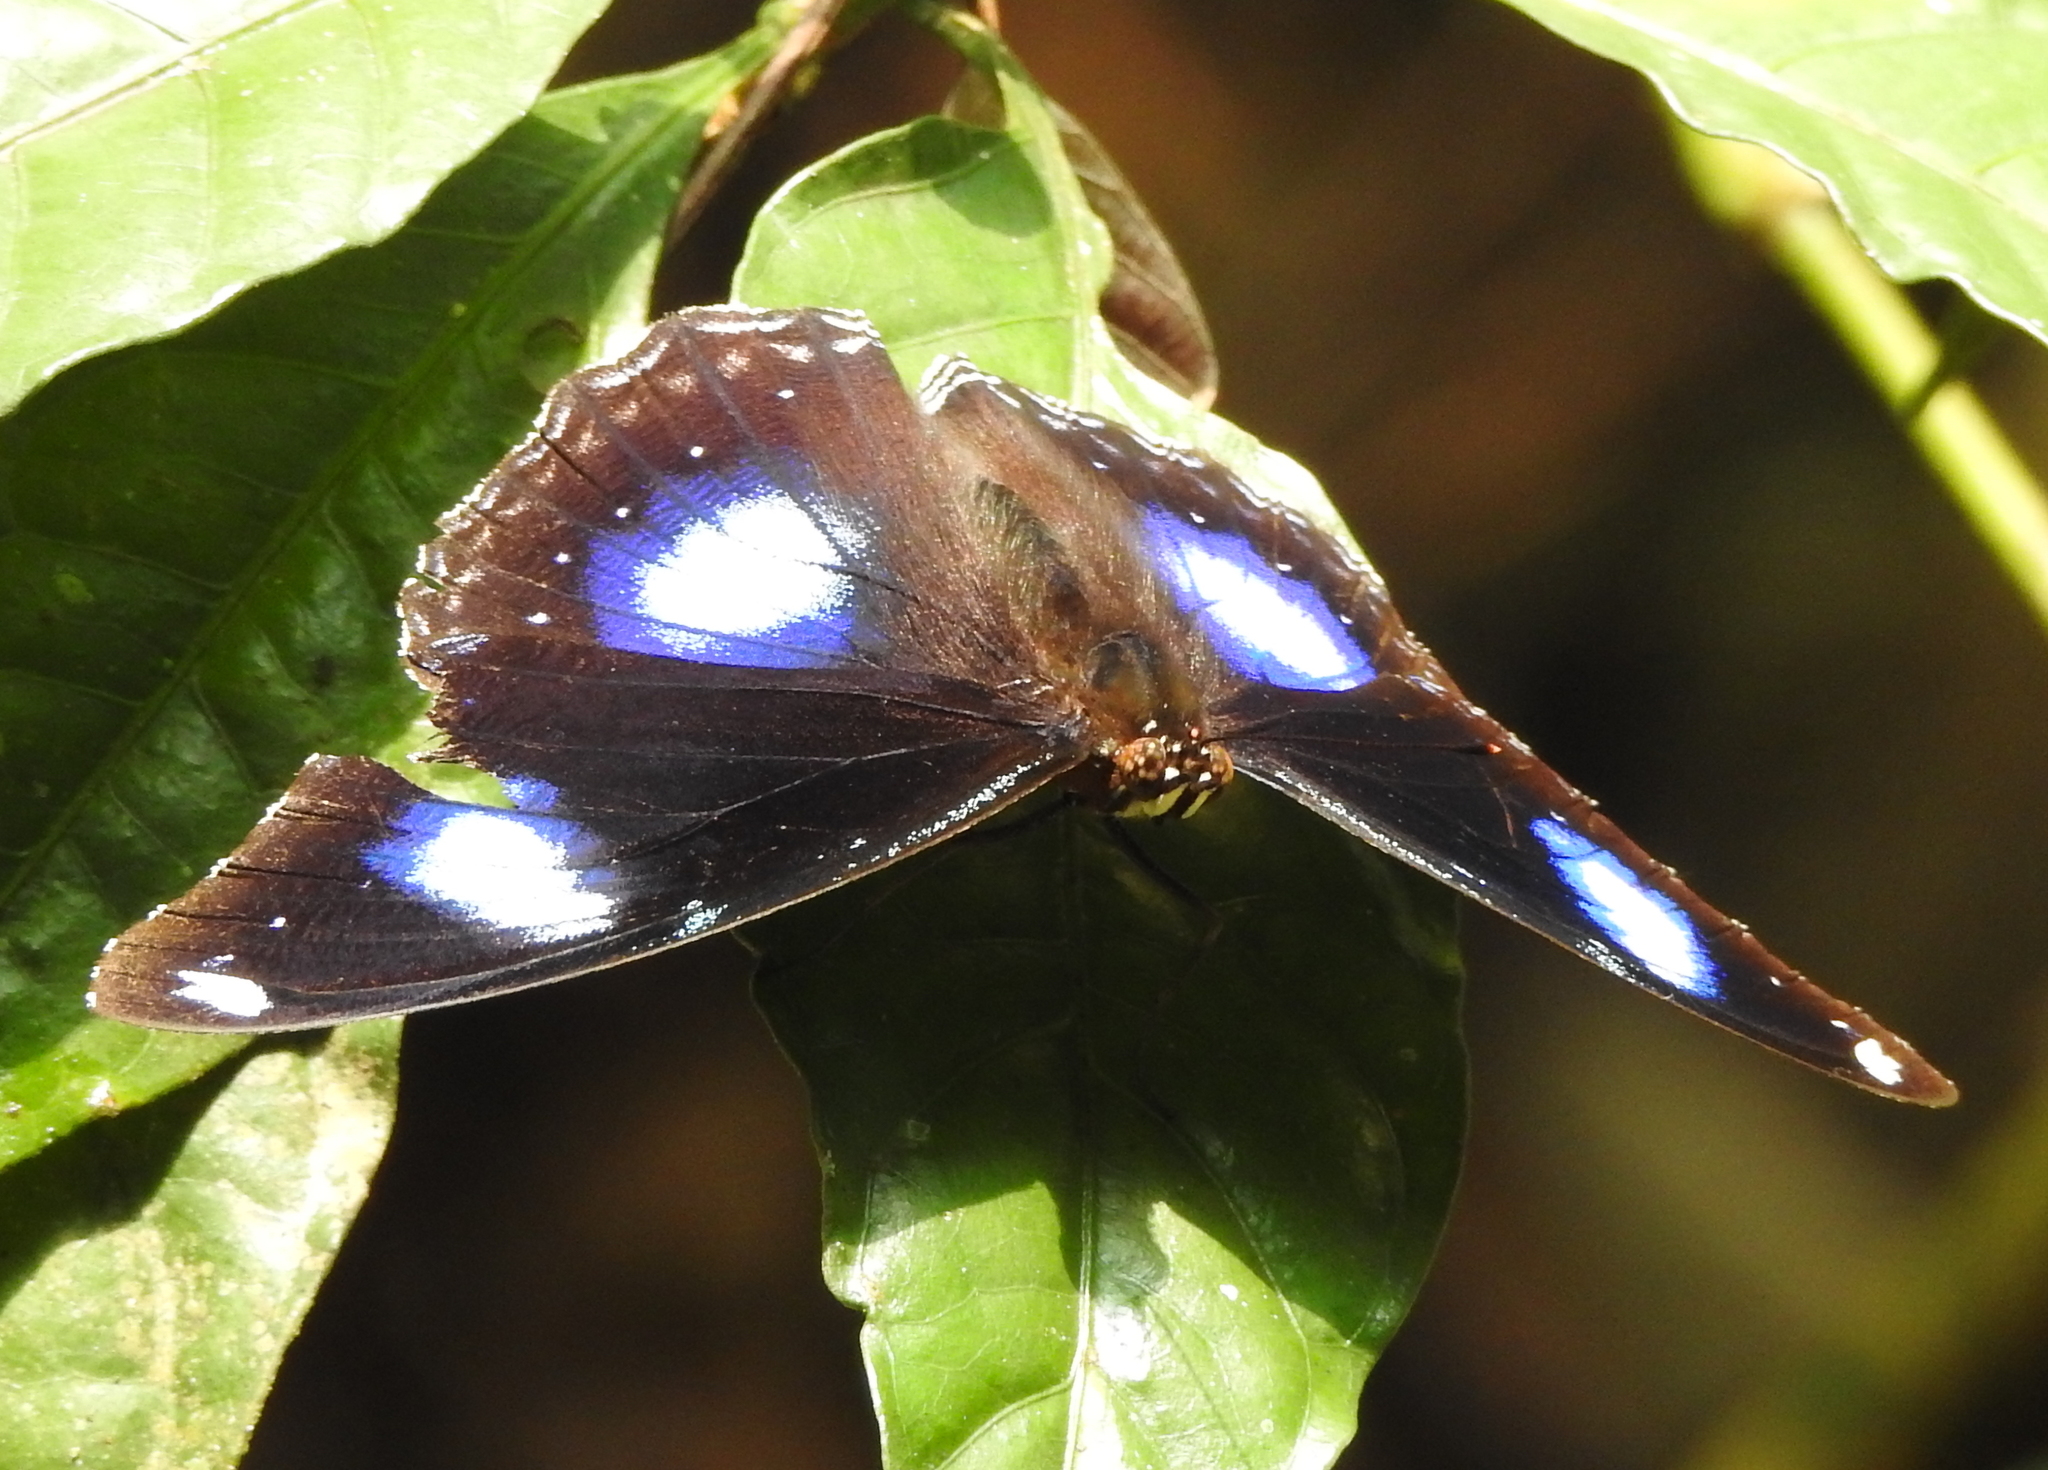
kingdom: Animalia
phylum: Arthropoda
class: Insecta
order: Lepidoptera
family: Nymphalidae
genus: Hypolimnas
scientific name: Hypolimnas bolina
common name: Great eggfly
